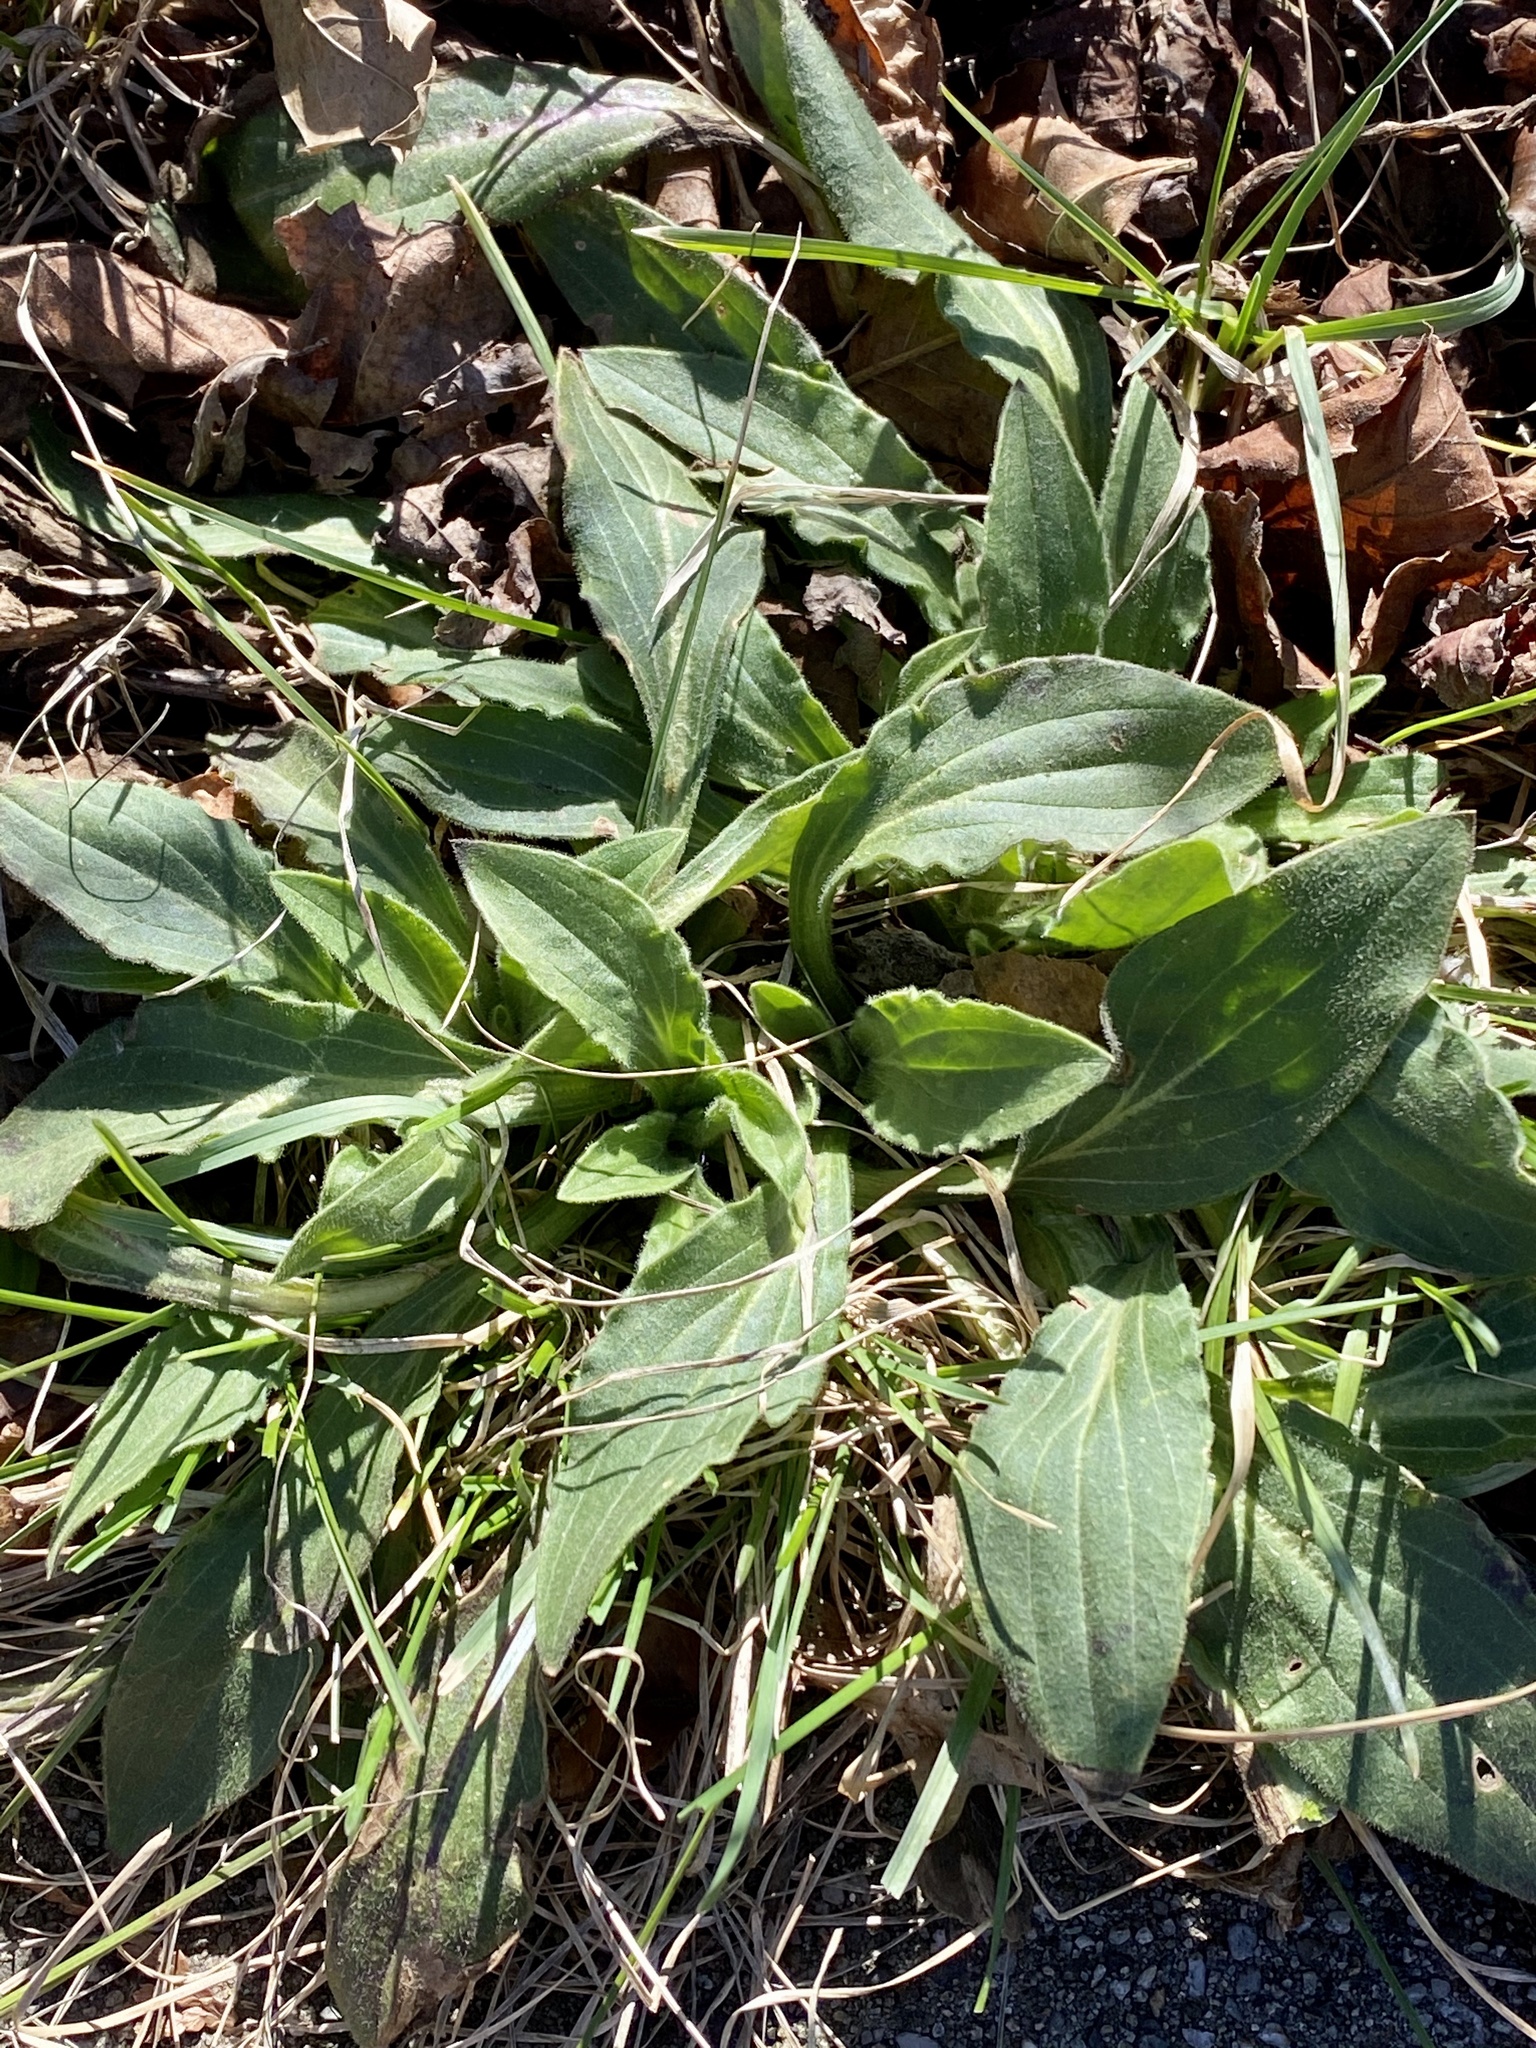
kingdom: Plantae
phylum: Tracheophyta
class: Magnoliopsida
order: Caryophyllales
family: Caryophyllaceae
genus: Silene
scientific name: Silene latifolia
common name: White campion
